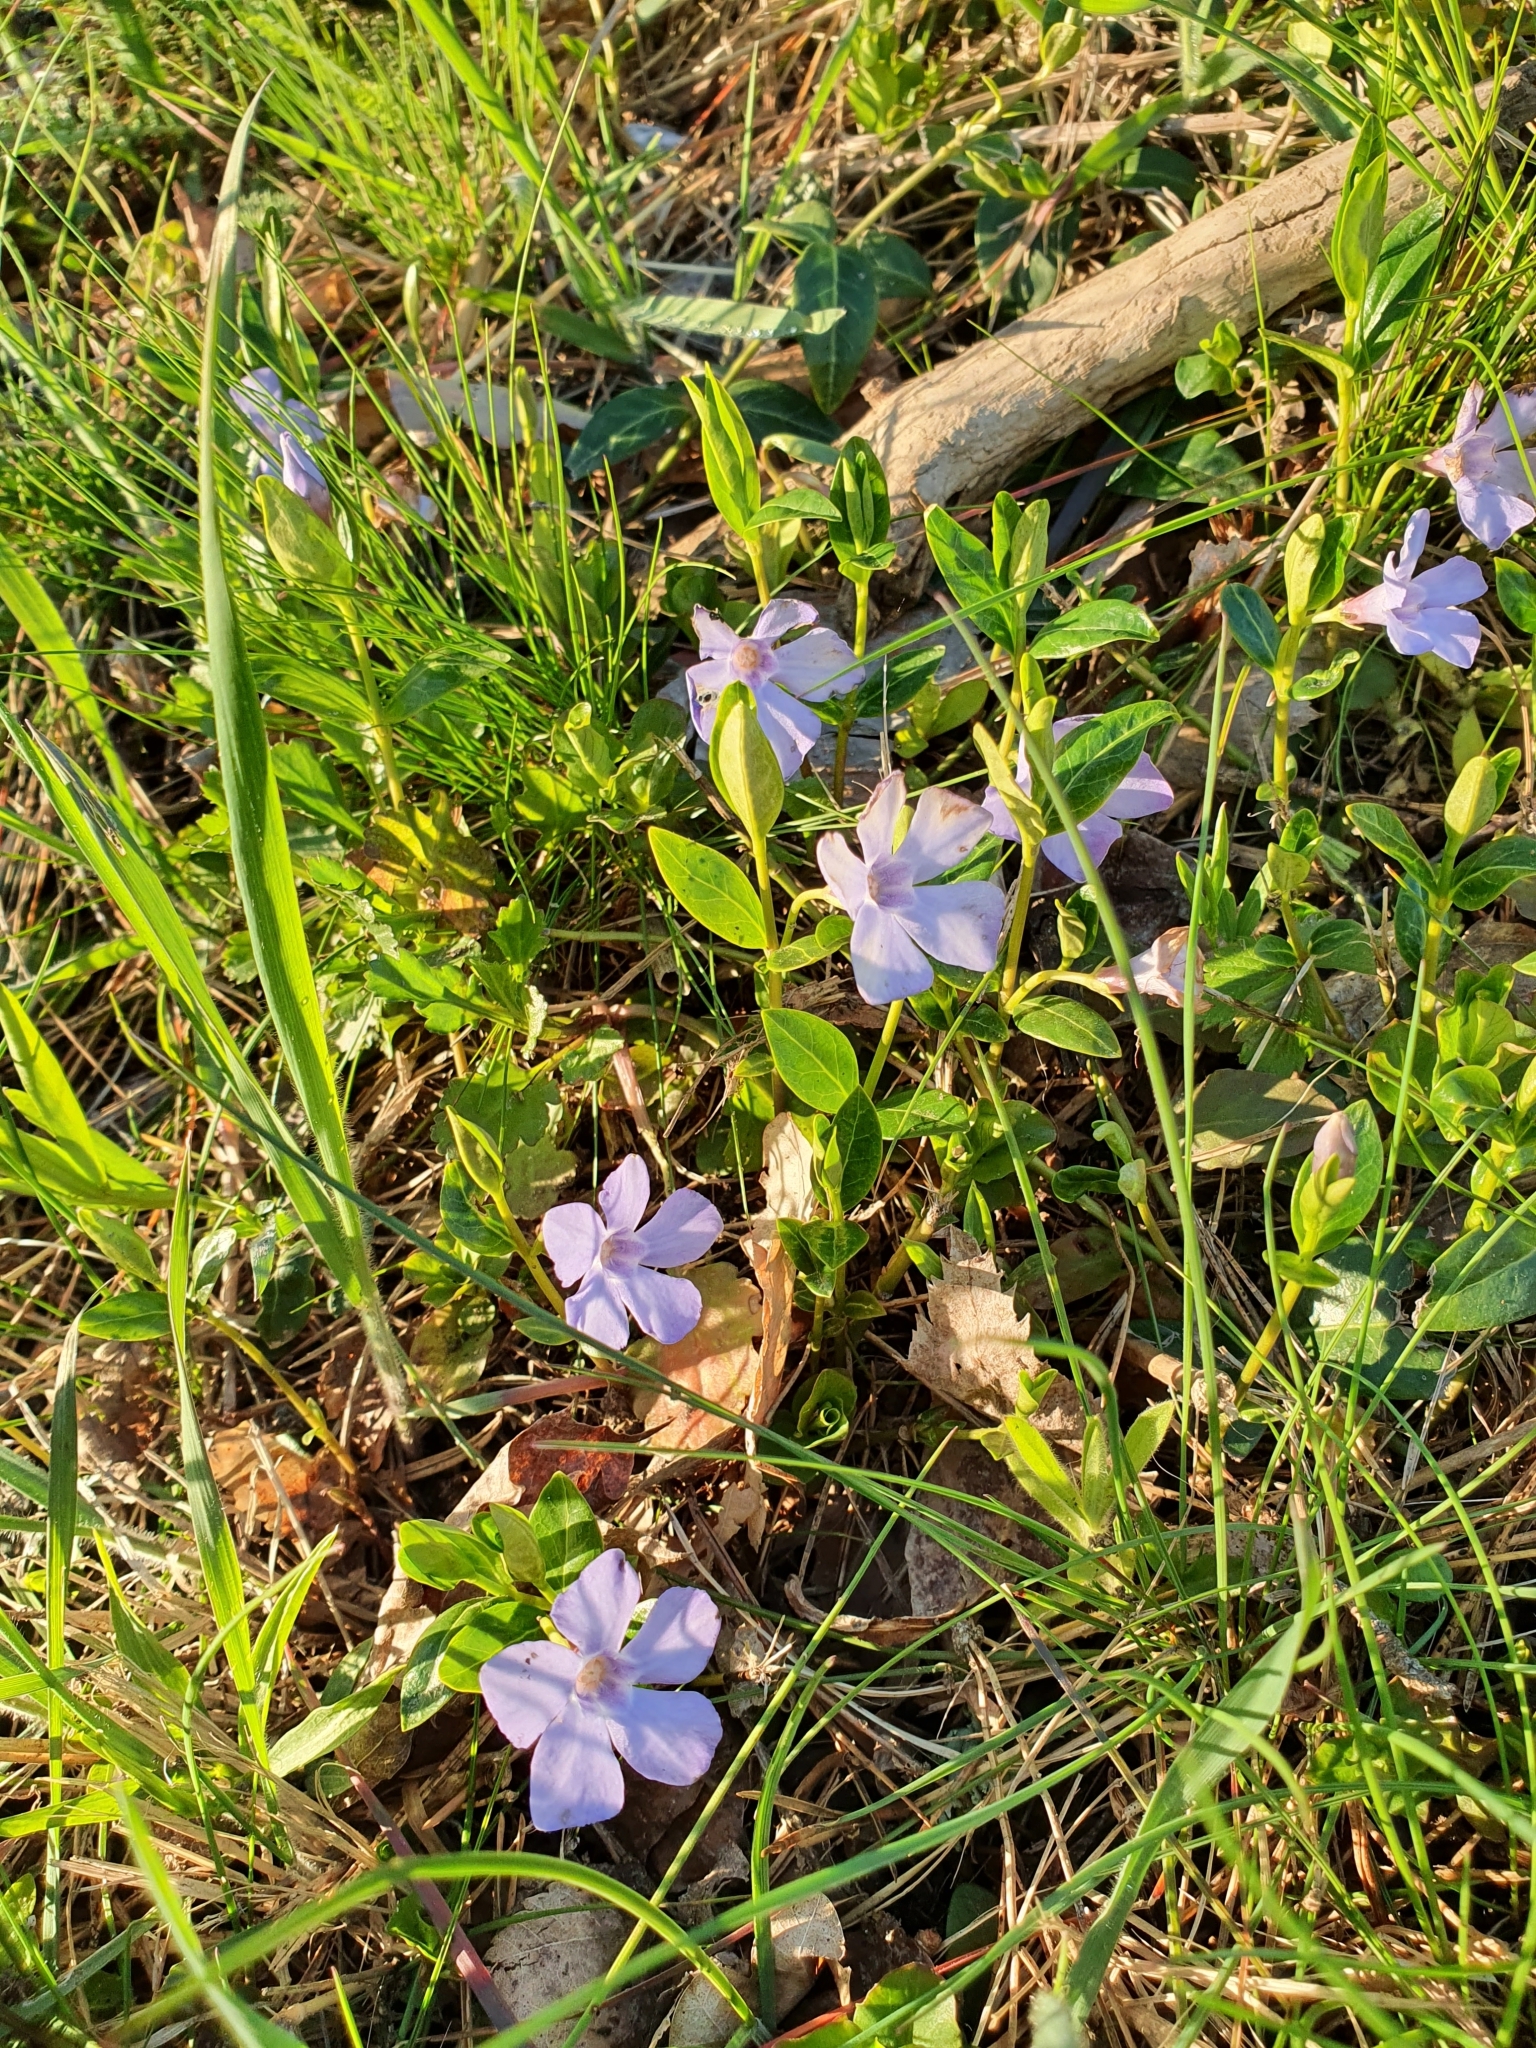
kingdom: Plantae
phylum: Tracheophyta
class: Magnoliopsida
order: Gentianales
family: Apocynaceae
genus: Vinca
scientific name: Vinca minor
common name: Lesser periwinkle
